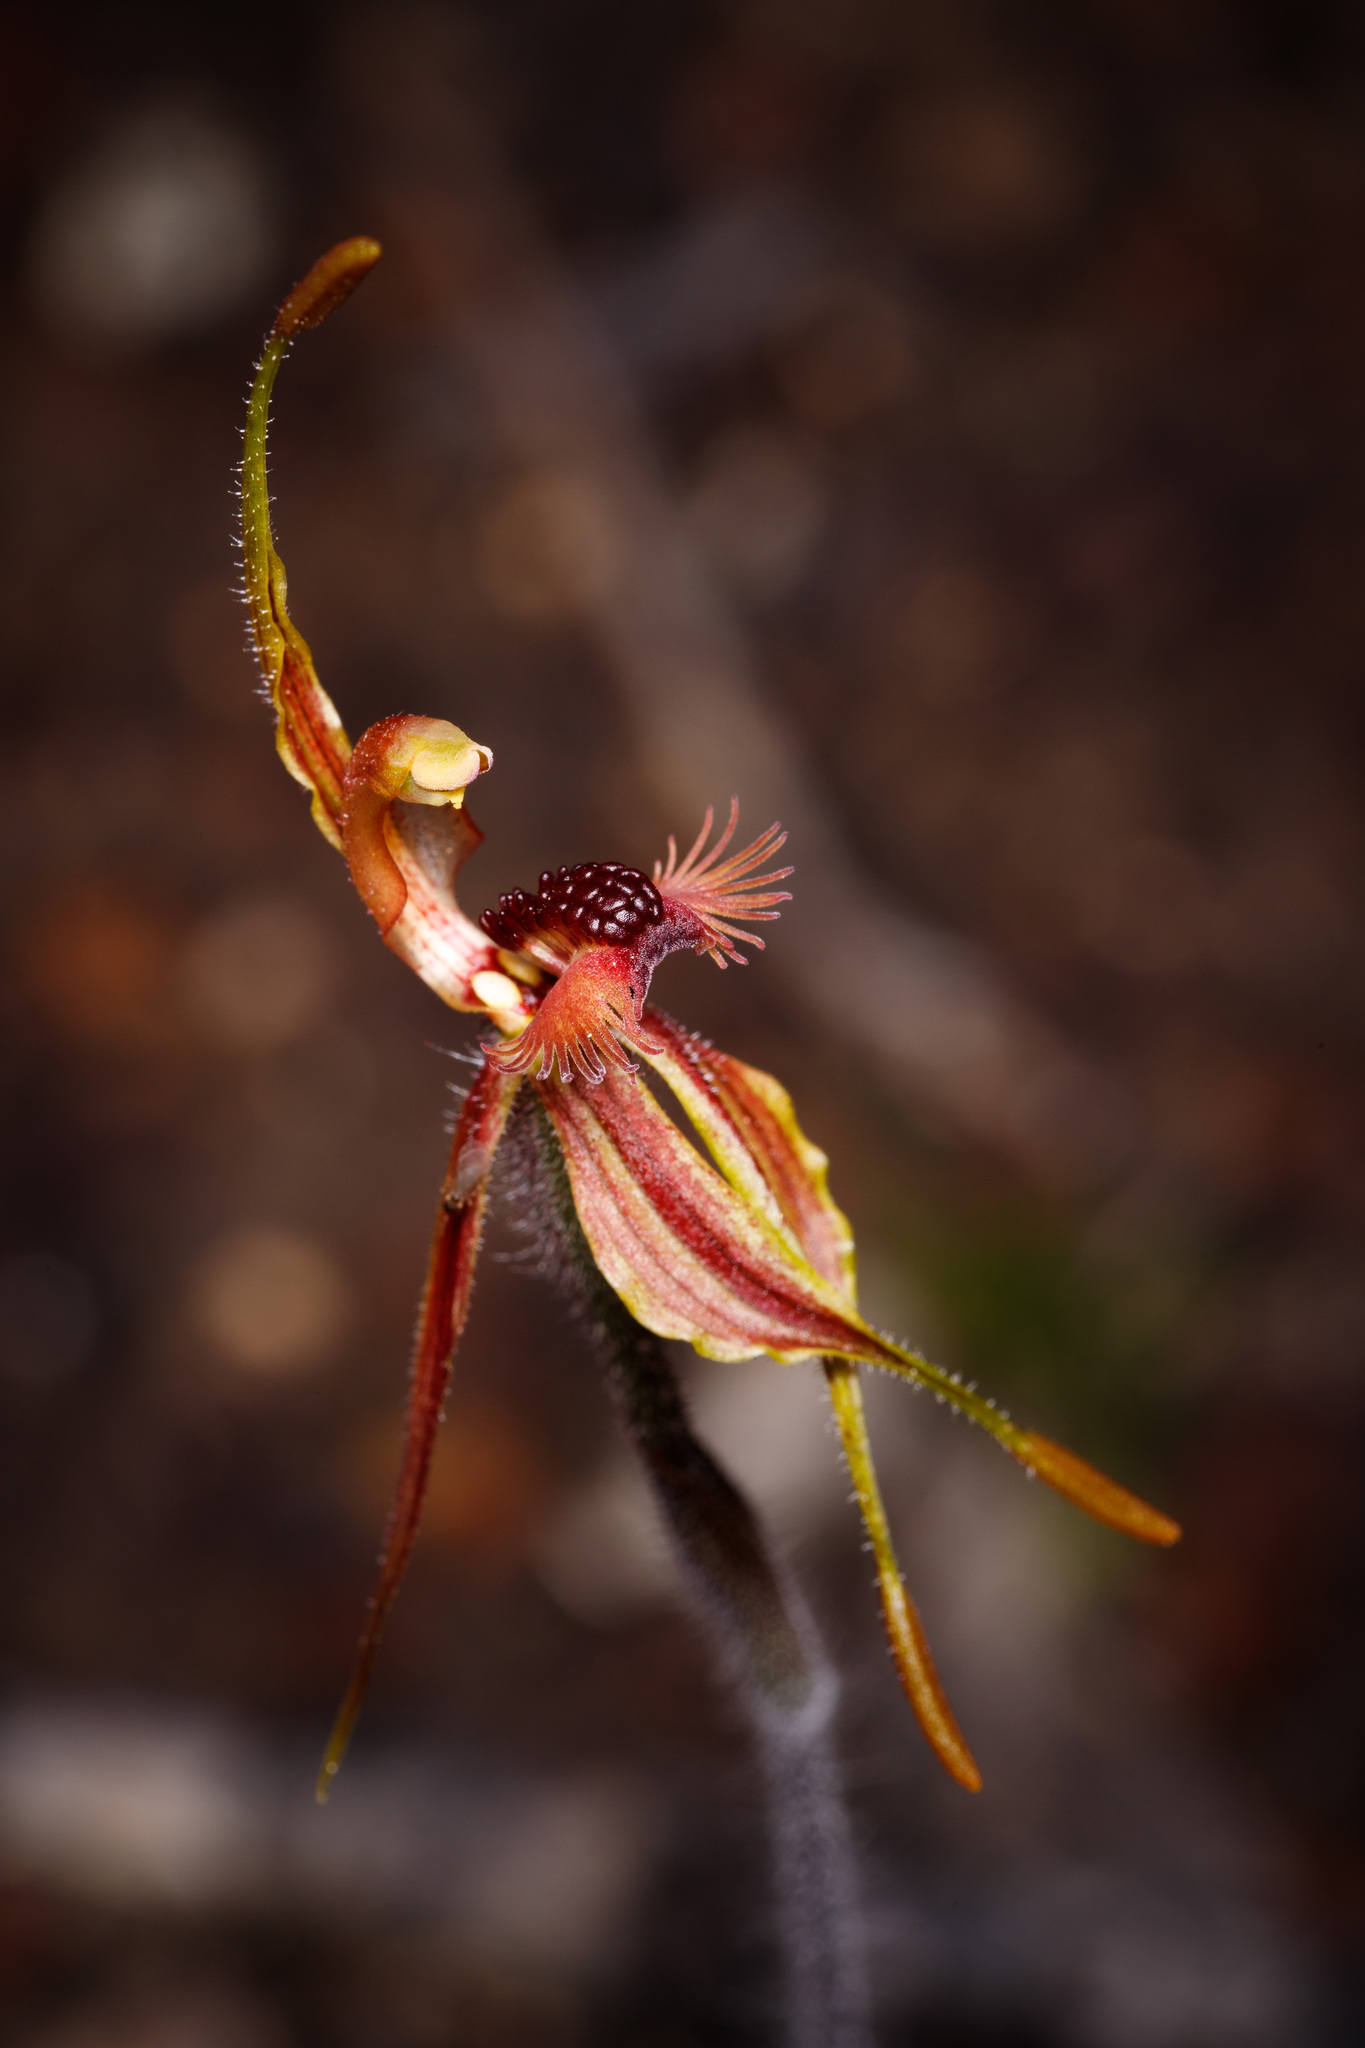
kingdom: Plantae
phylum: Tracheophyta
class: Liliopsida
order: Asparagales
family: Orchidaceae
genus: Caladenia
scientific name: Caladenia plicata
